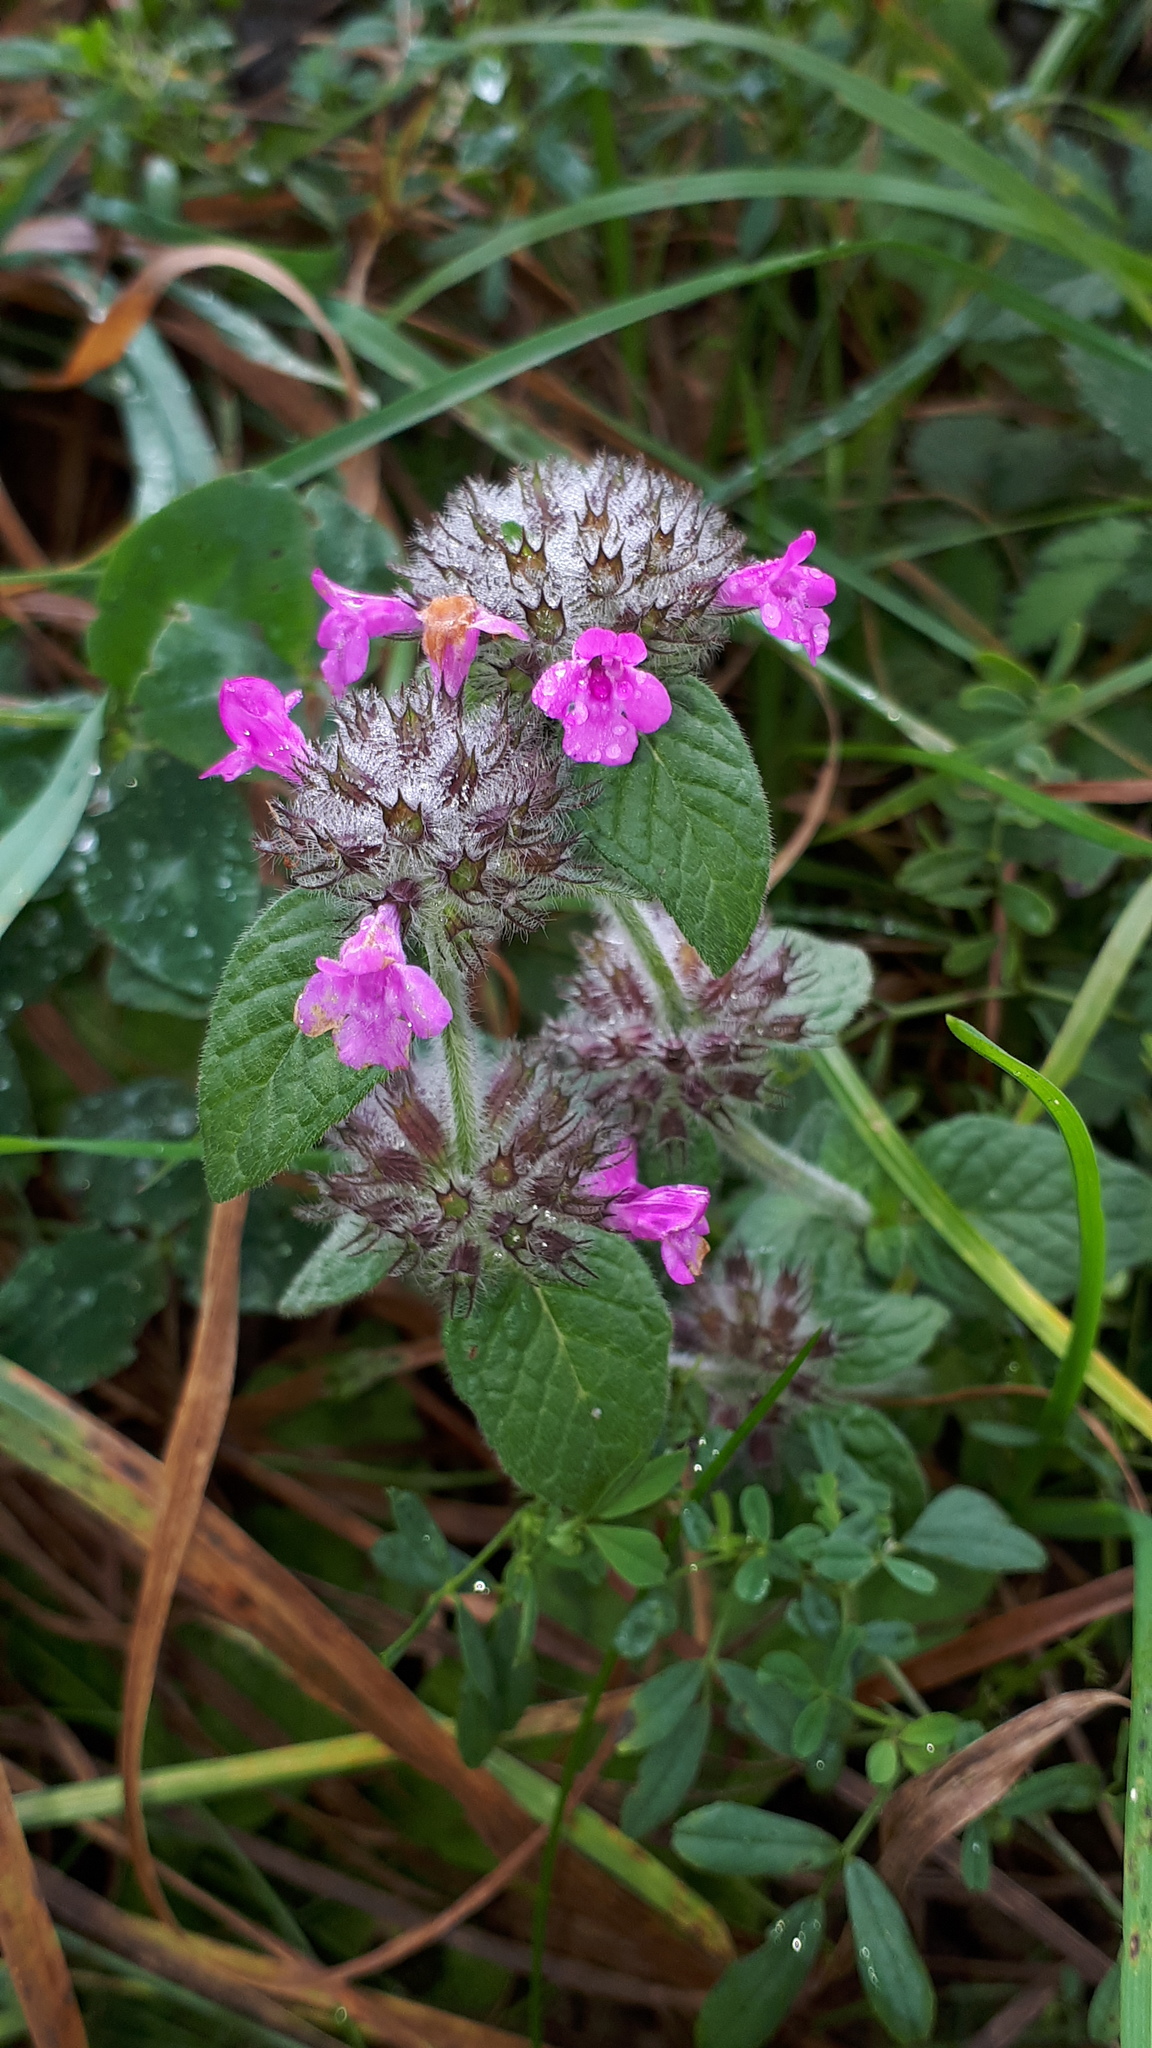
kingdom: Plantae
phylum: Tracheophyta
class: Magnoliopsida
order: Lamiales
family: Lamiaceae
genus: Clinopodium
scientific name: Clinopodium vulgare
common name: Wild basil
